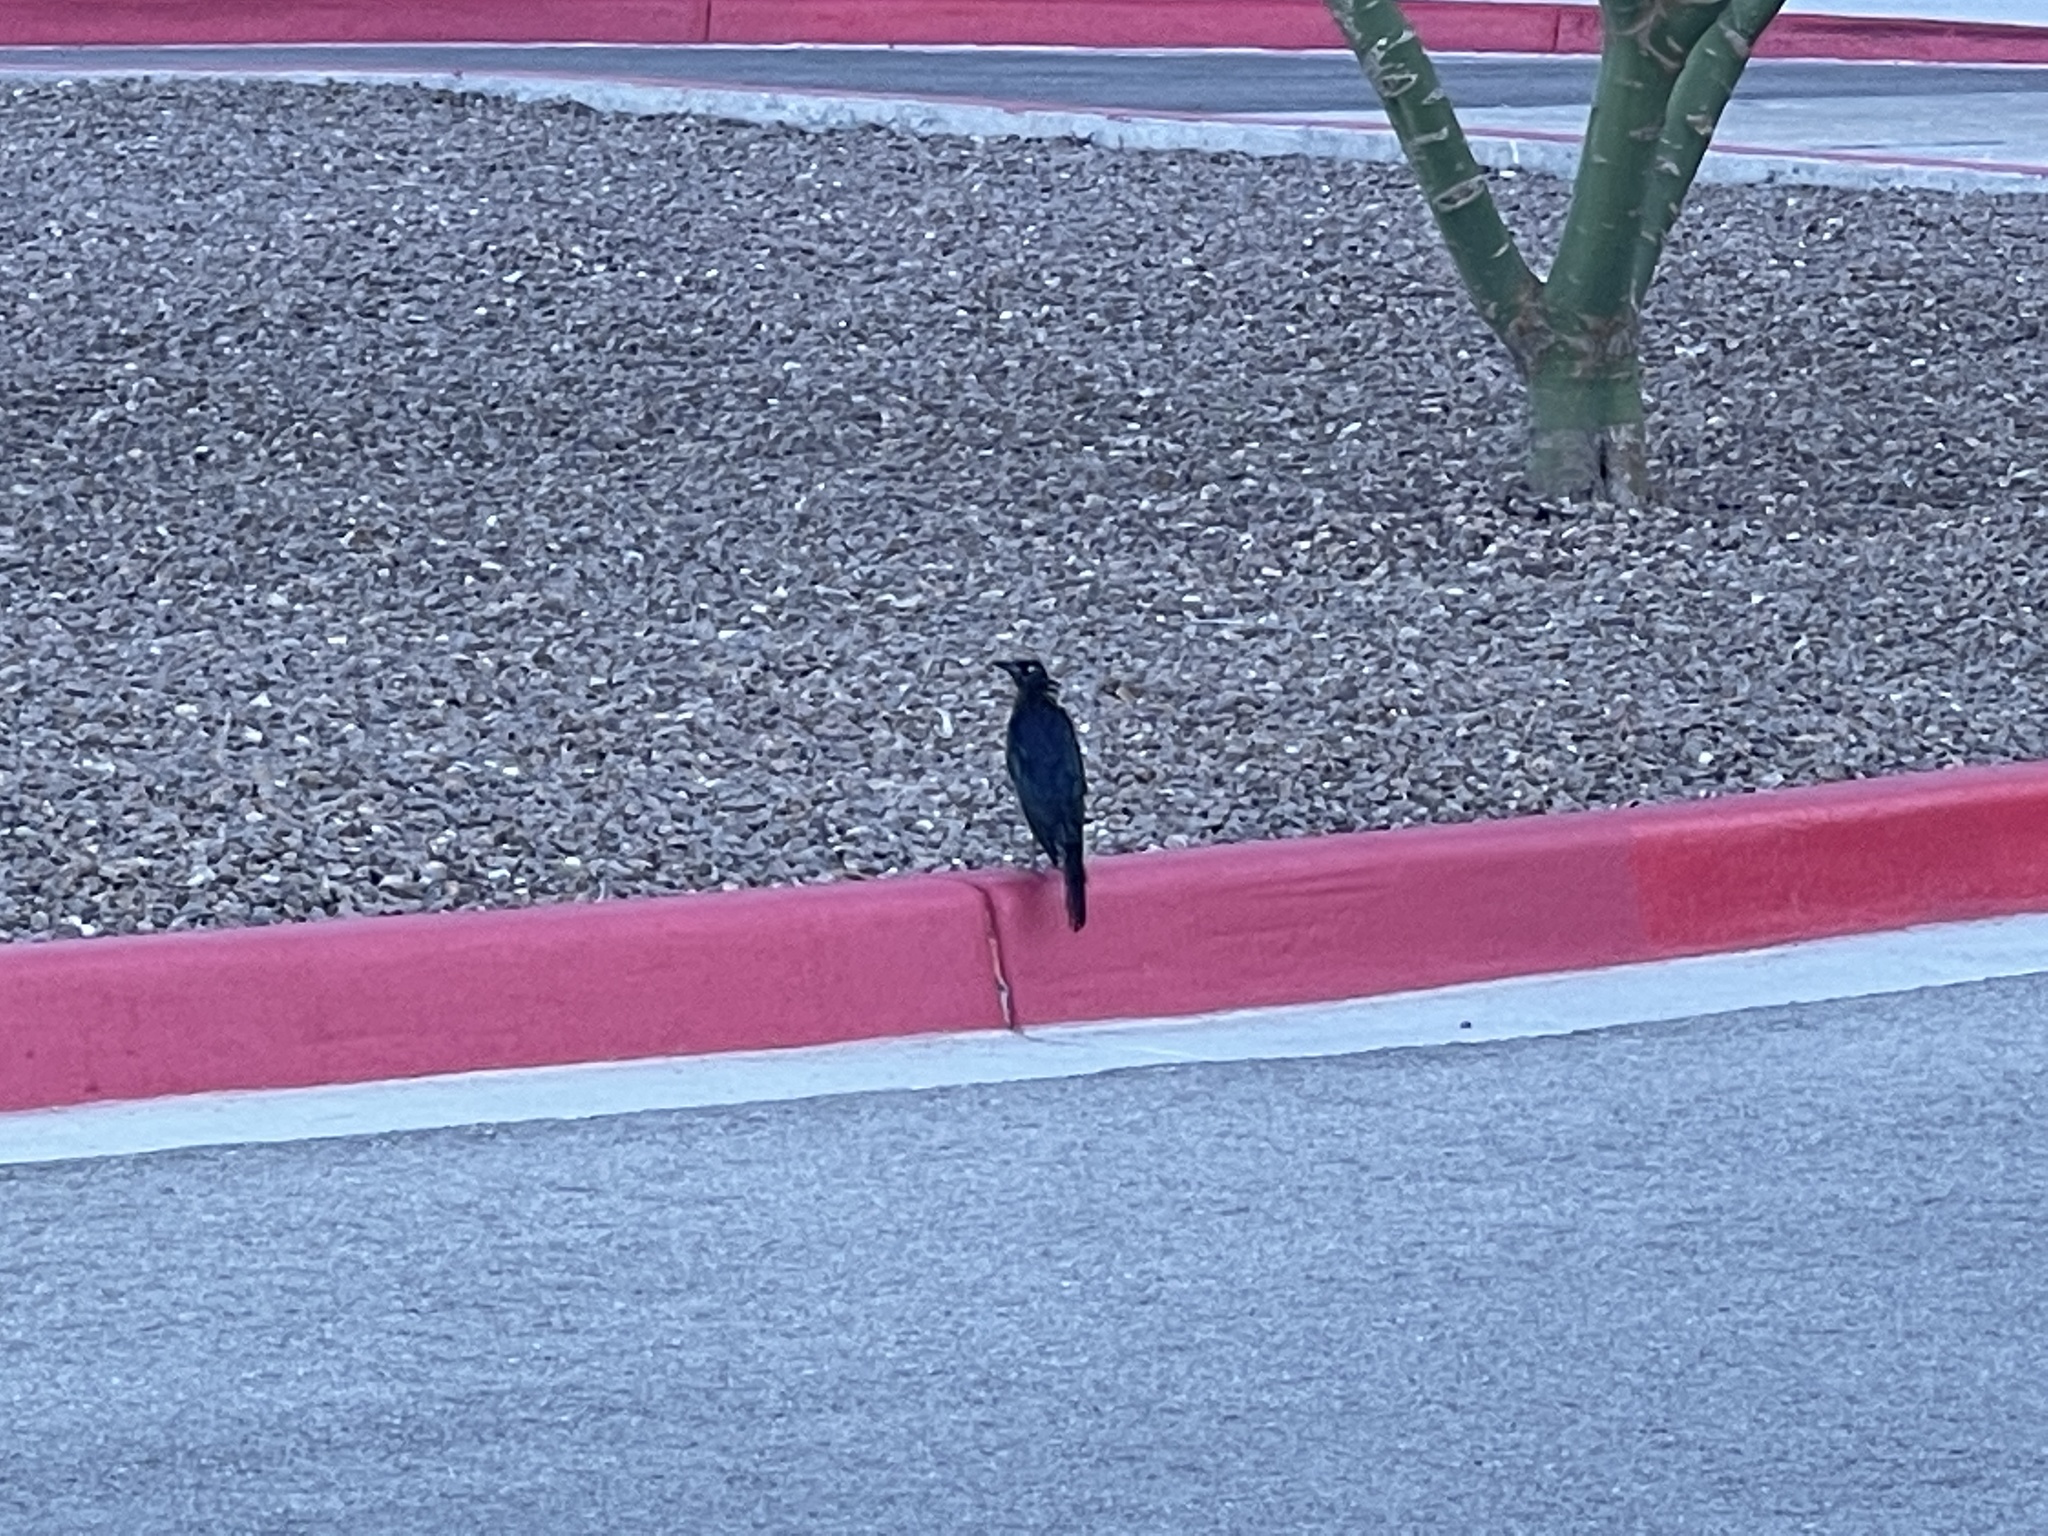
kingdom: Animalia
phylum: Chordata
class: Aves
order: Passeriformes
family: Icteridae
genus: Quiscalus
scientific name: Quiscalus mexicanus
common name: Great-tailed grackle
